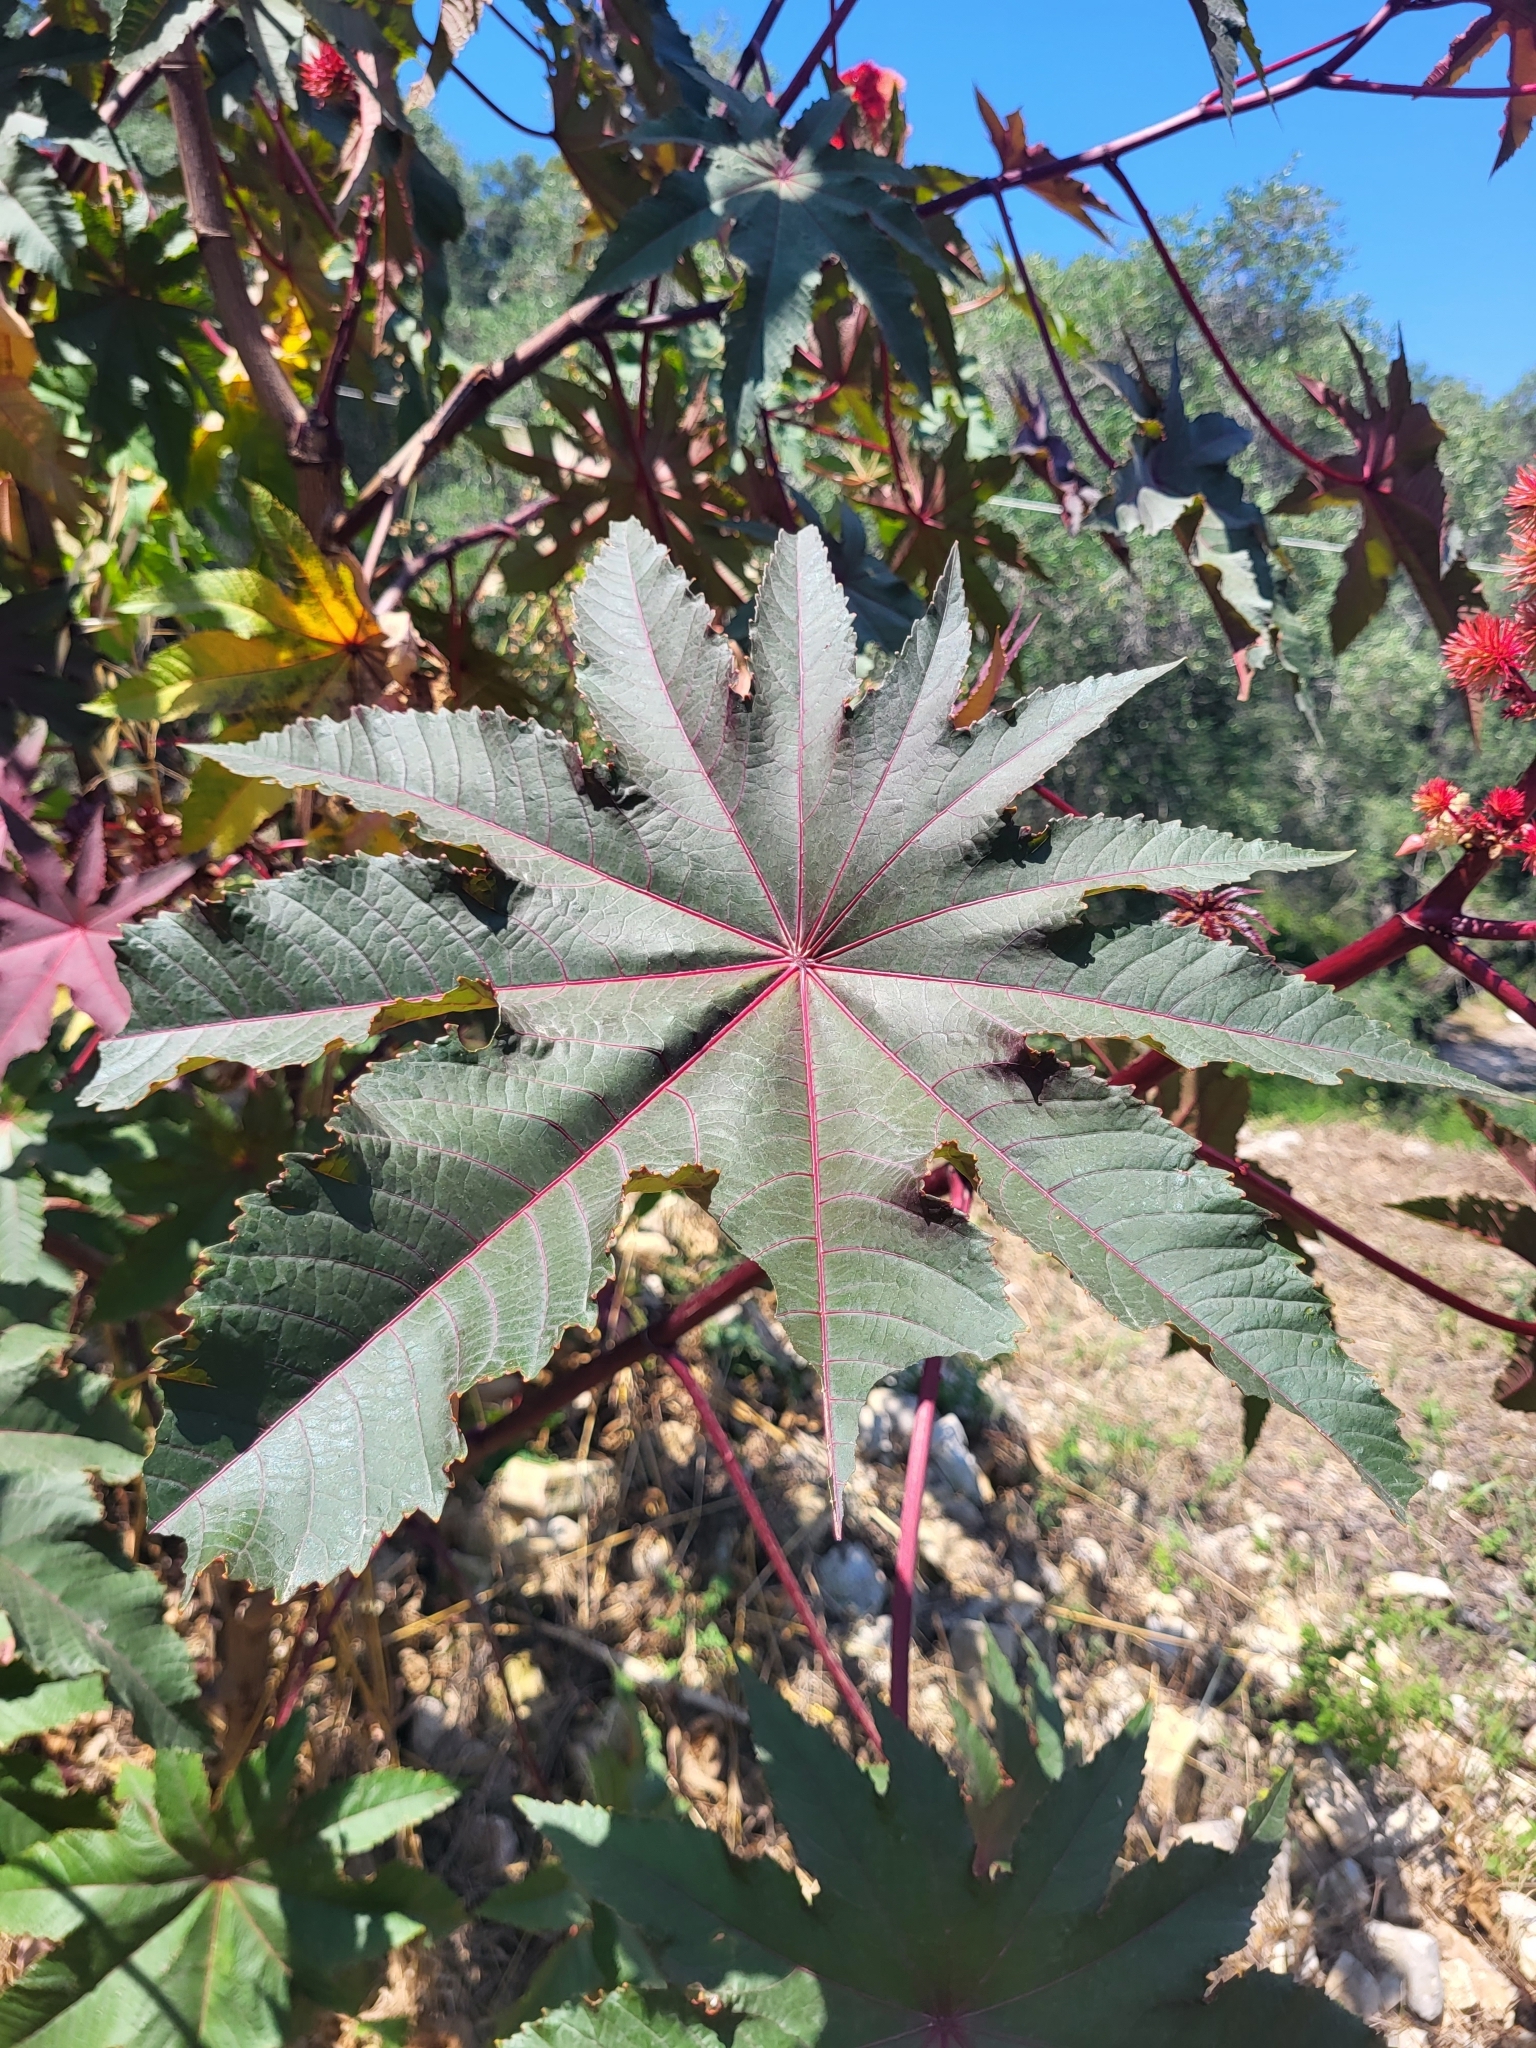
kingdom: Plantae
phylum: Tracheophyta
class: Magnoliopsida
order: Malpighiales
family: Euphorbiaceae
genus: Ricinus
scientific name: Ricinus communis
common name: Castor-oil-plant
